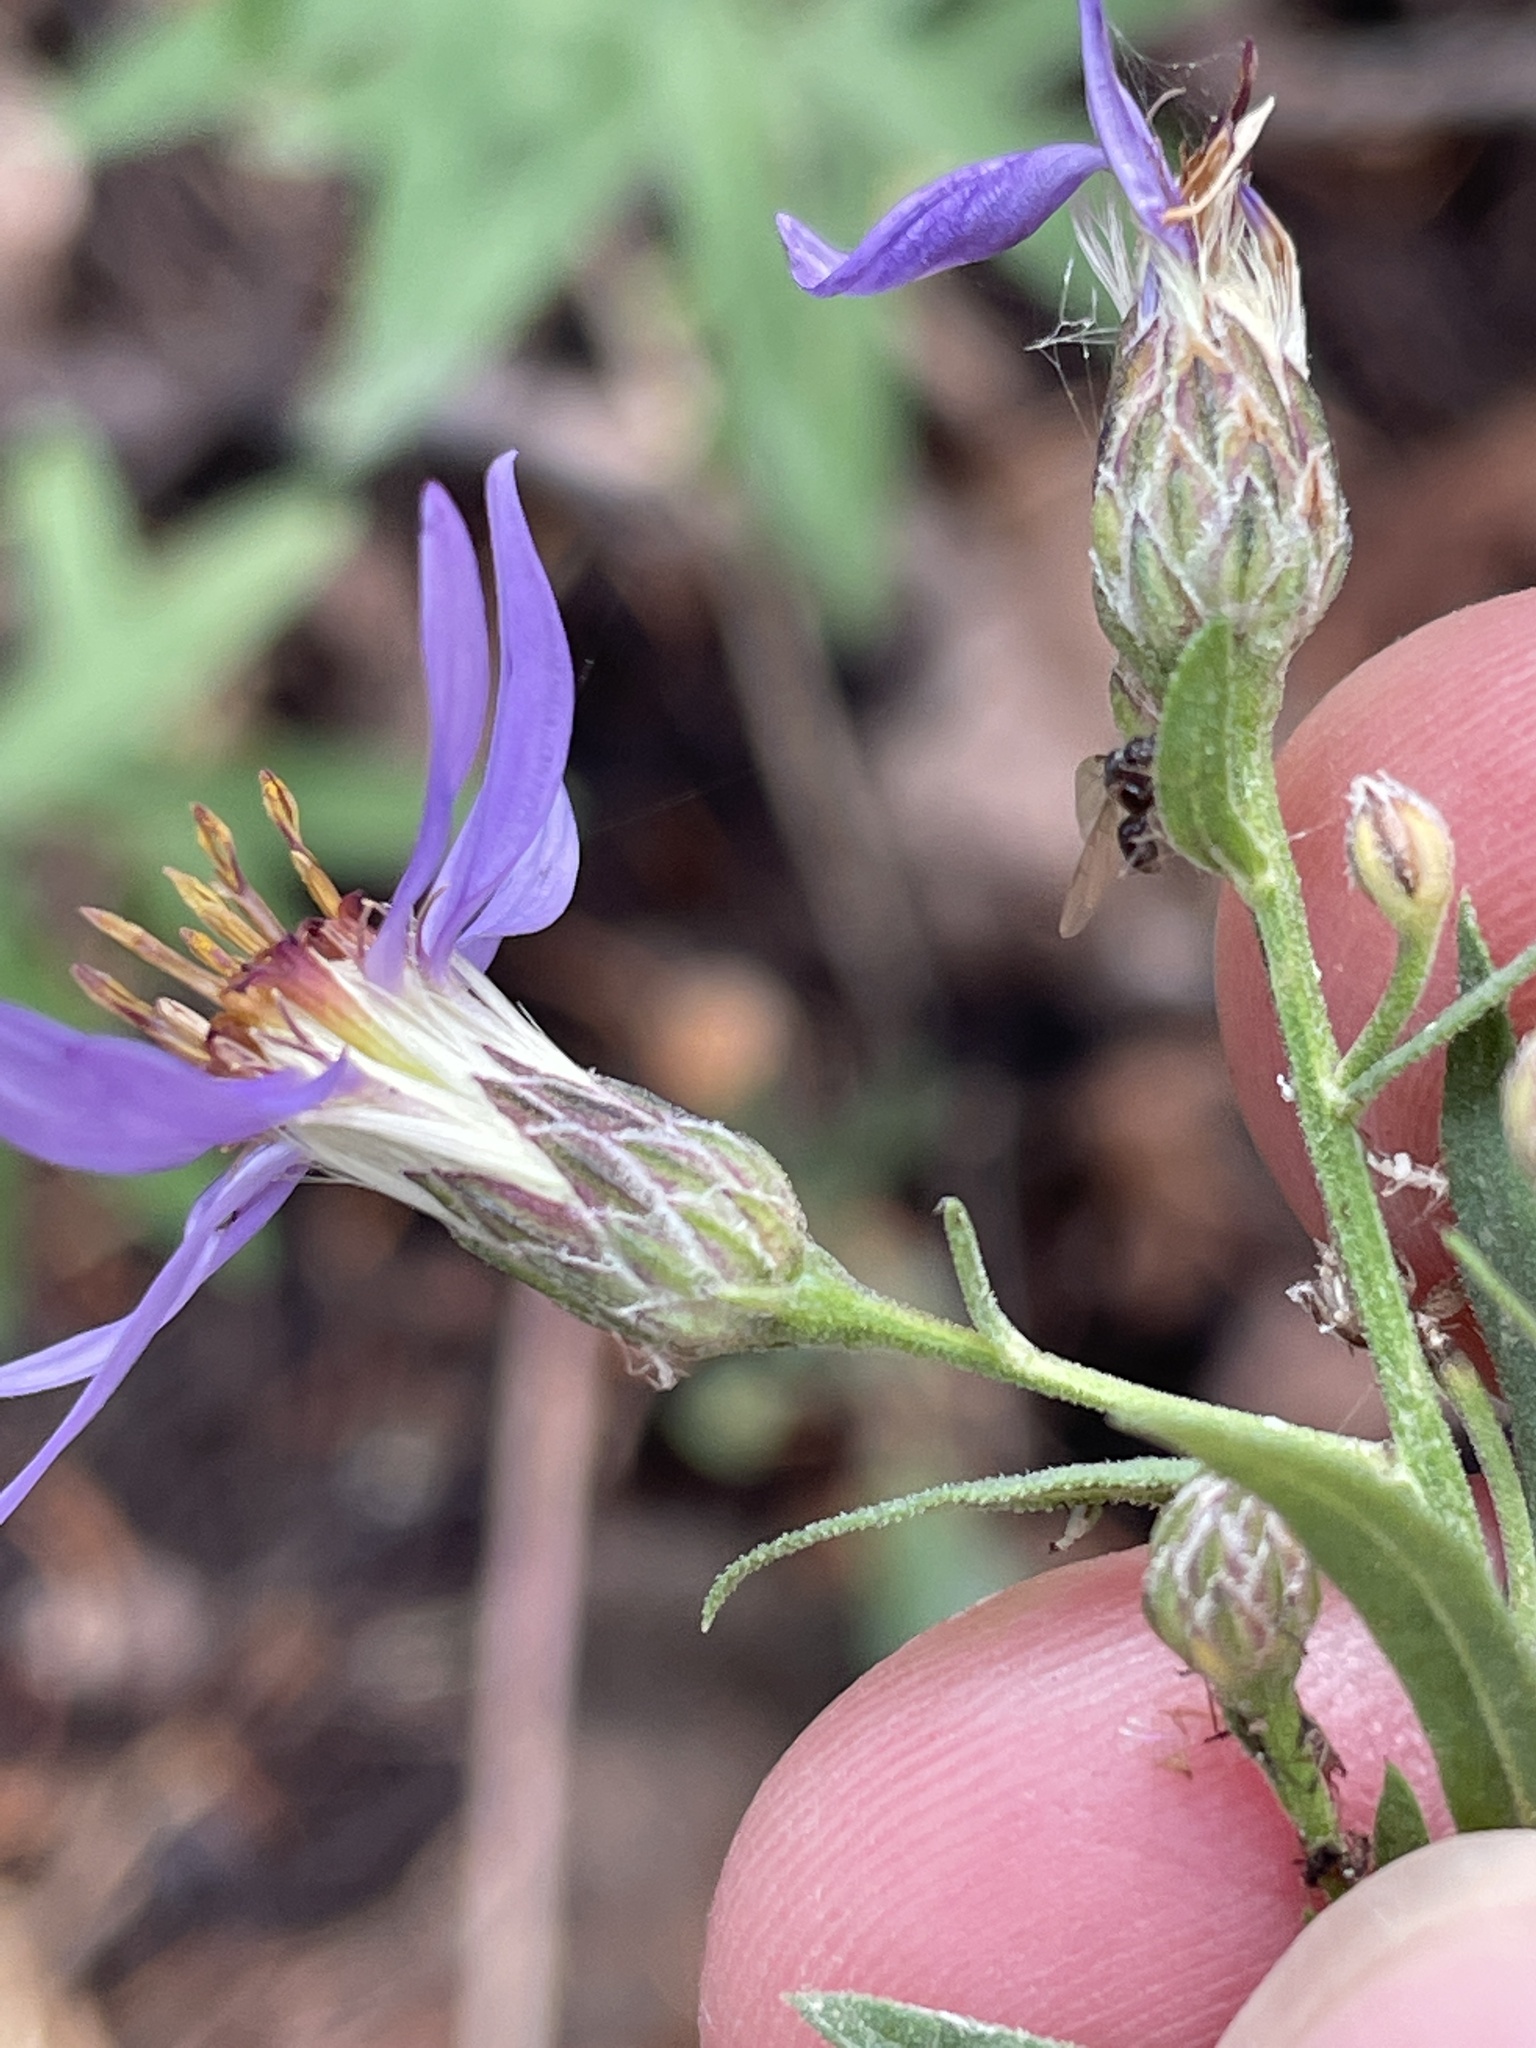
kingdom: Plantae
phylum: Tracheophyta
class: Magnoliopsida
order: Asterales
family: Asteraceae
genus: Doellingeria
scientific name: Doellingeria elegans
